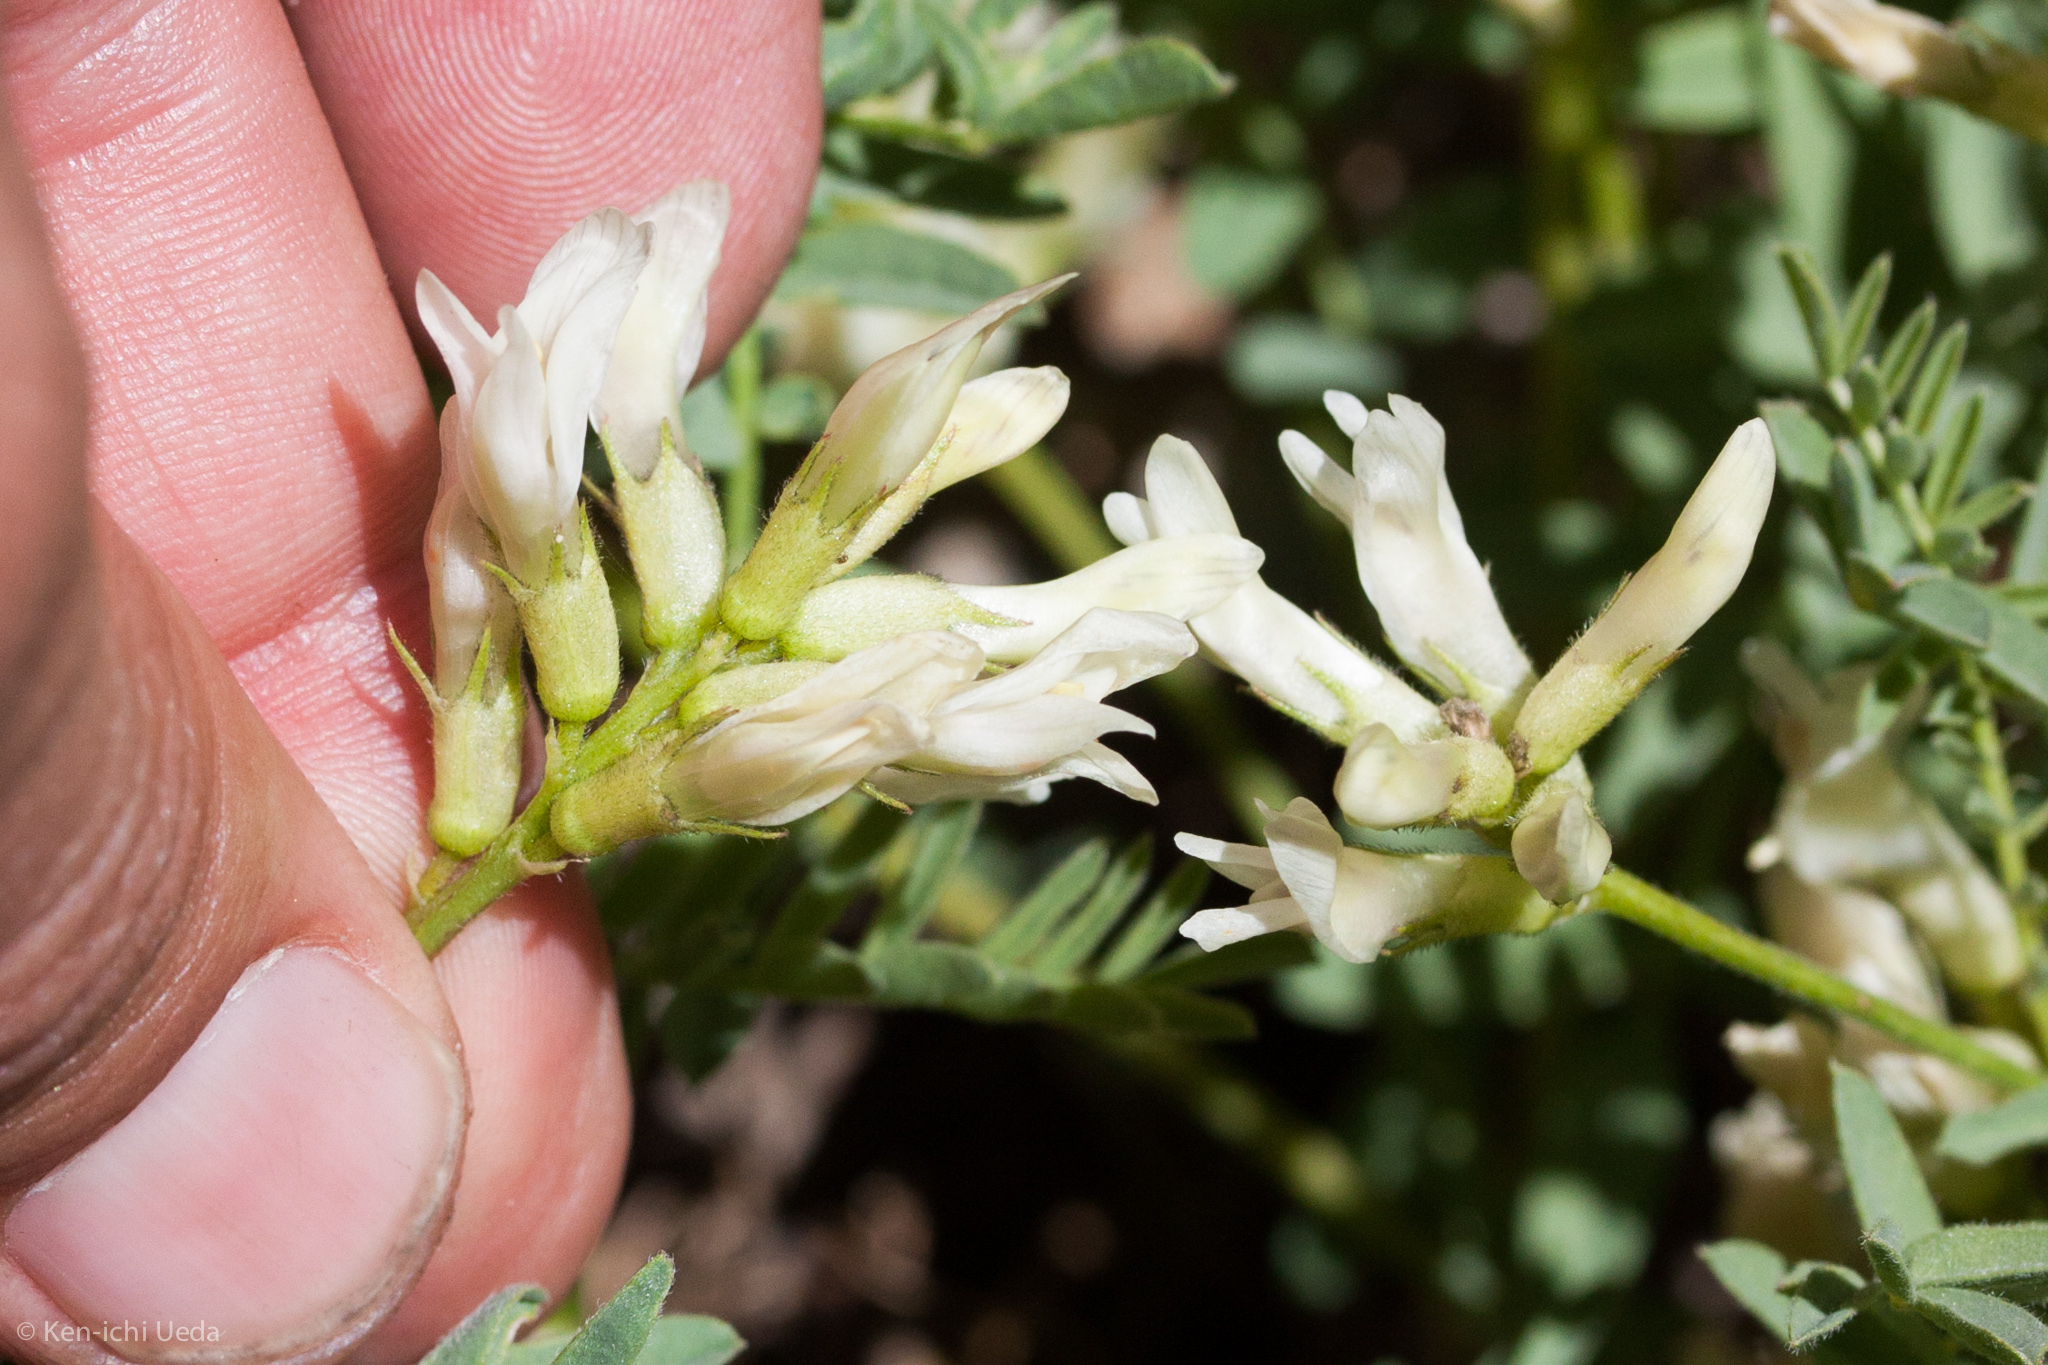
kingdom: Plantae
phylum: Tracheophyta
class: Magnoliopsida
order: Fabales
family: Fabaceae
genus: Astragalus
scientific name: Astragalus bolanderi
